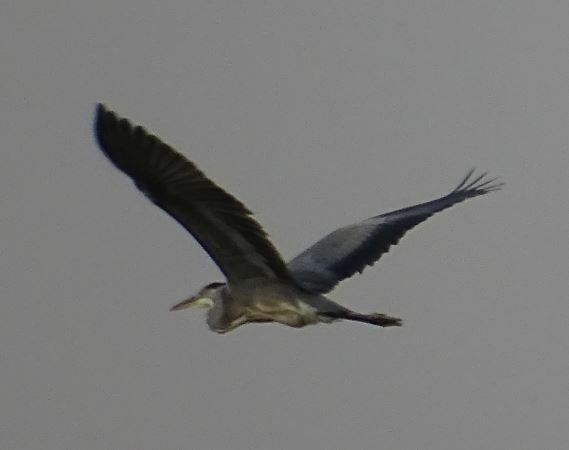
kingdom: Animalia
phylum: Chordata
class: Aves
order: Pelecaniformes
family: Ardeidae
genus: Ardea
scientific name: Ardea cinerea
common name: Grey heron
